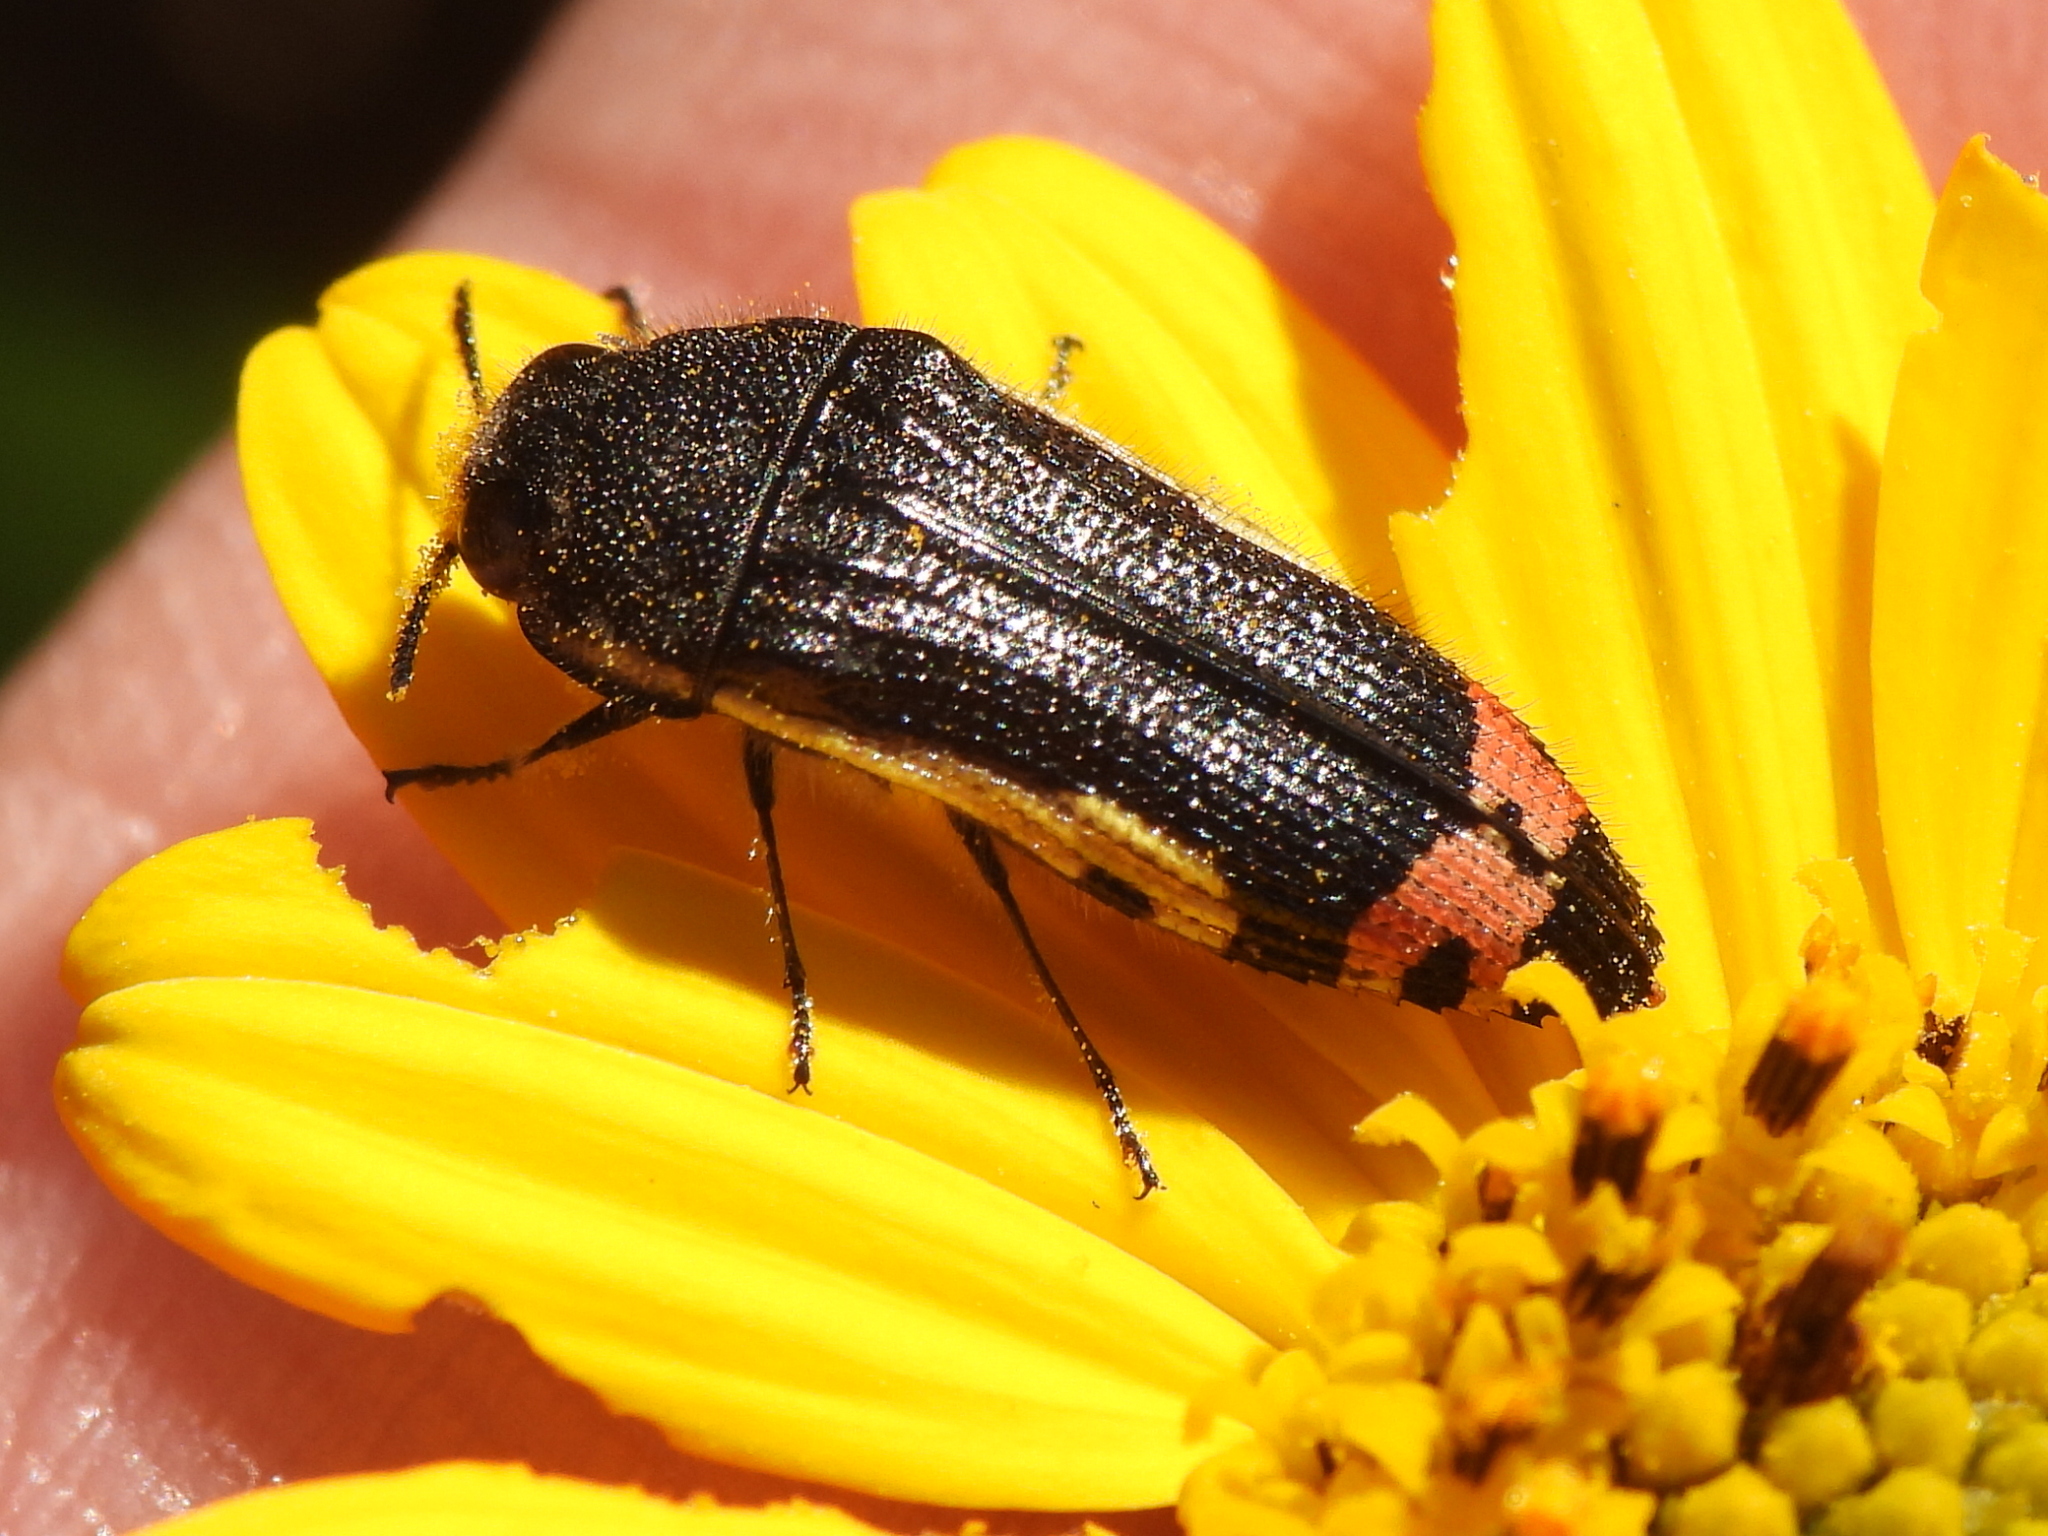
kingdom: Animalia
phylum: Arthropoda
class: Insecta
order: Coleoptera
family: Buprestidae
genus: Acmaeodera
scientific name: Acmaeodera flavomarginata
